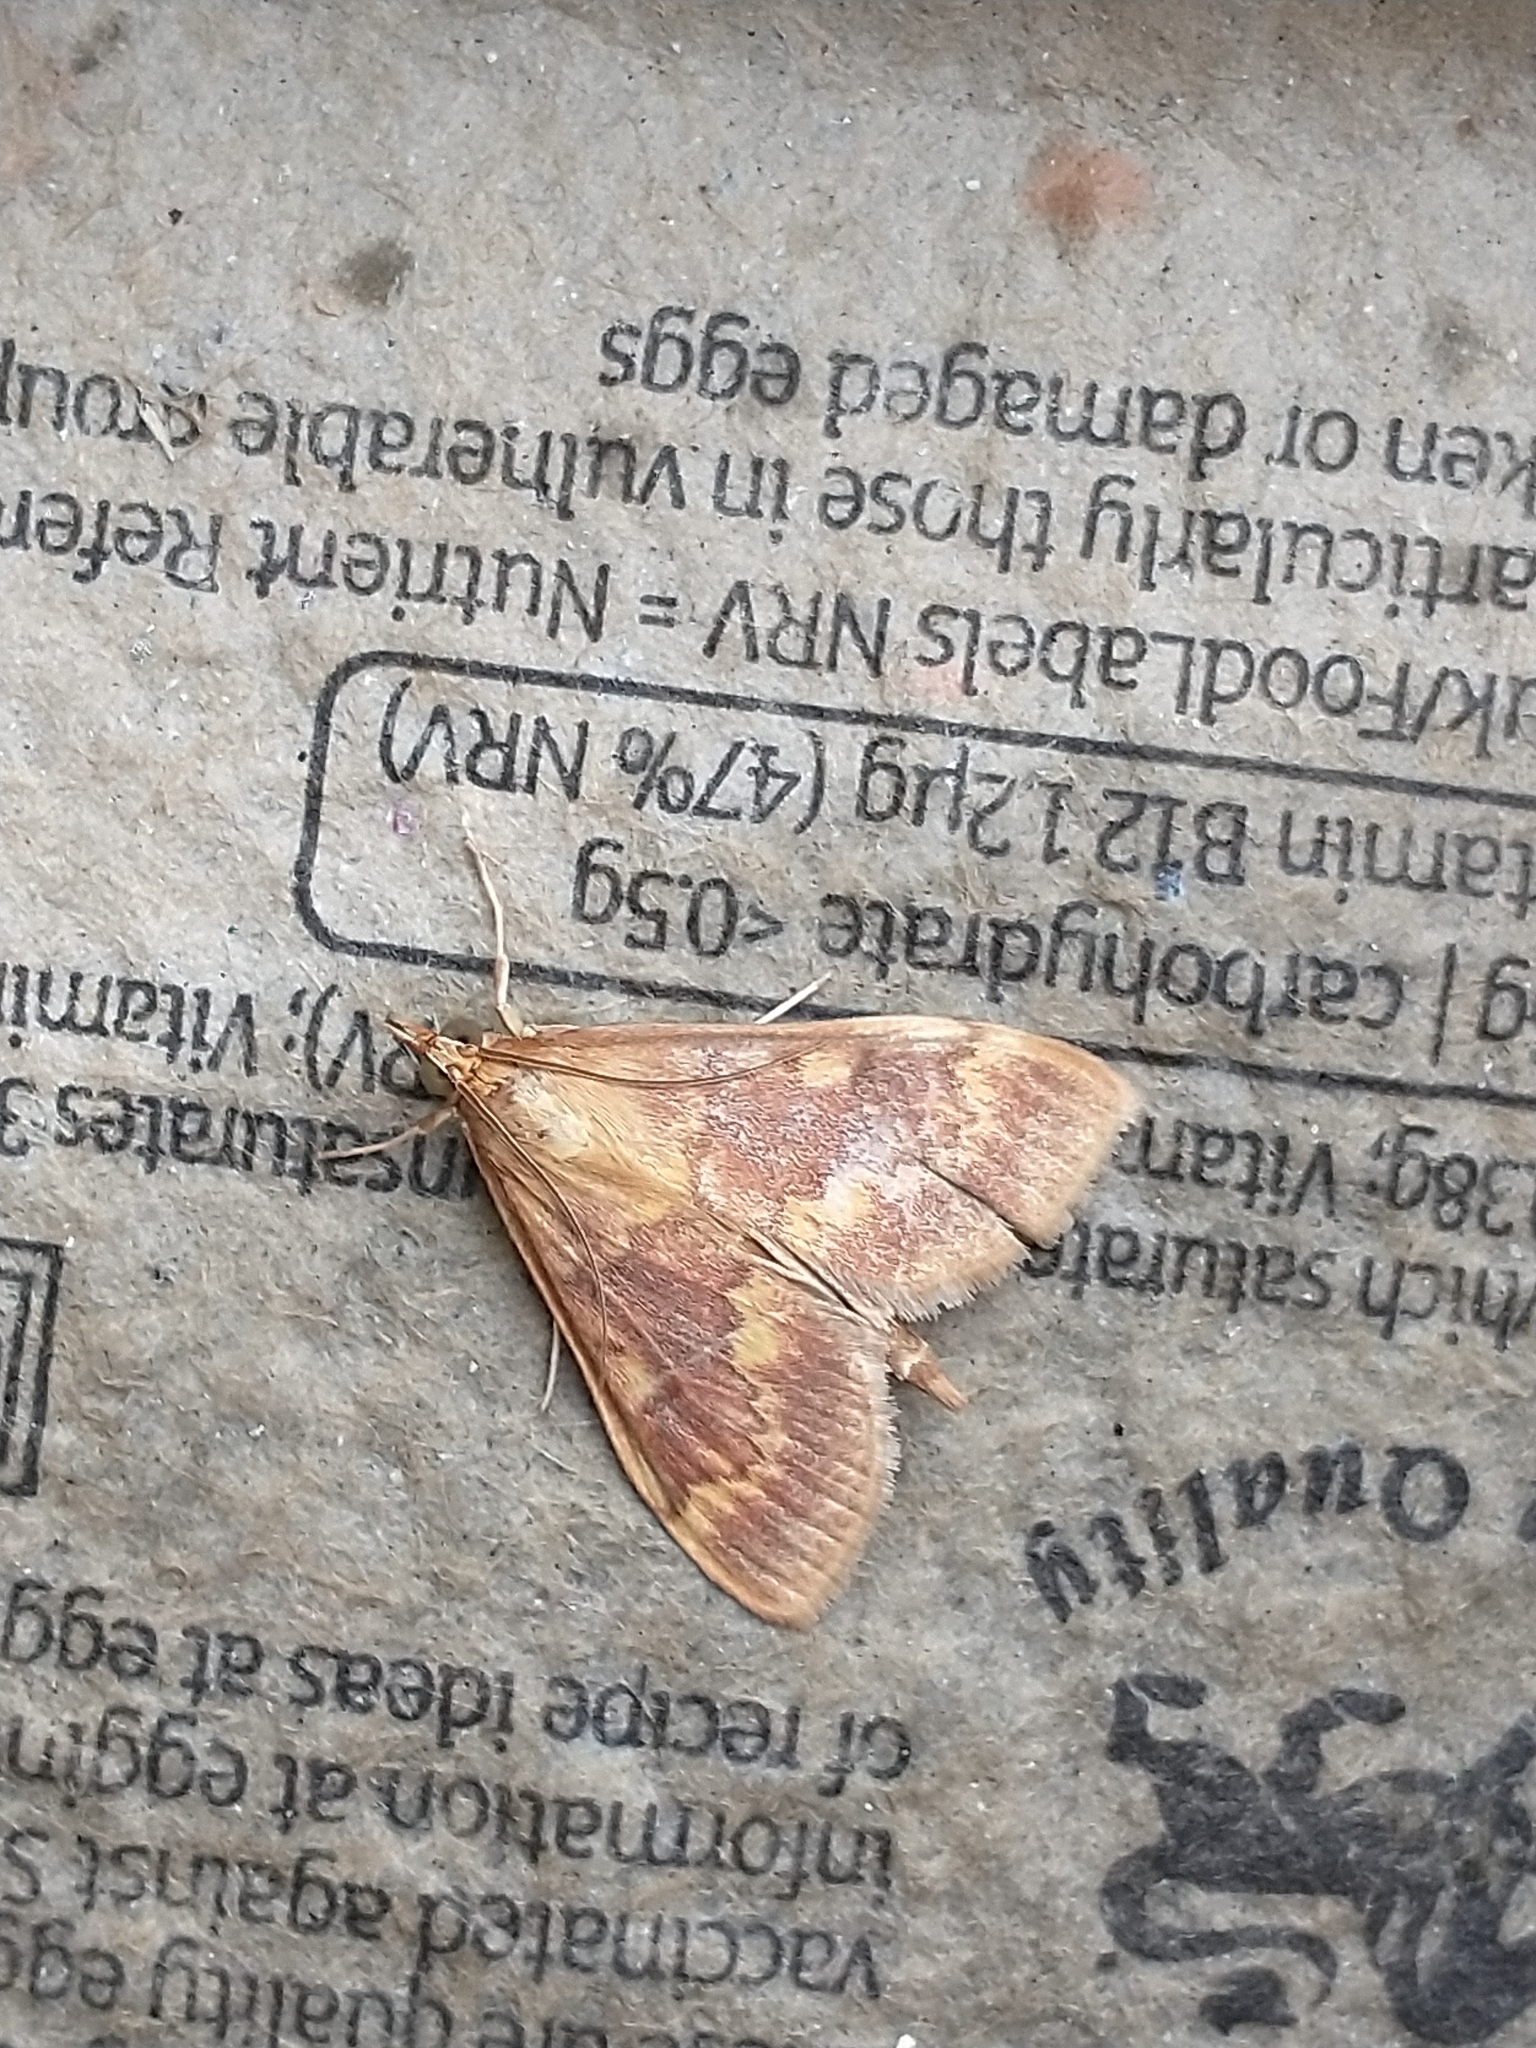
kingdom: Animalia
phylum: Arthropoda
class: Insecta
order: Lepidoptera
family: Crambidae
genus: Ostrinia
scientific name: Ostrinia nubilalis
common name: European corn borer
